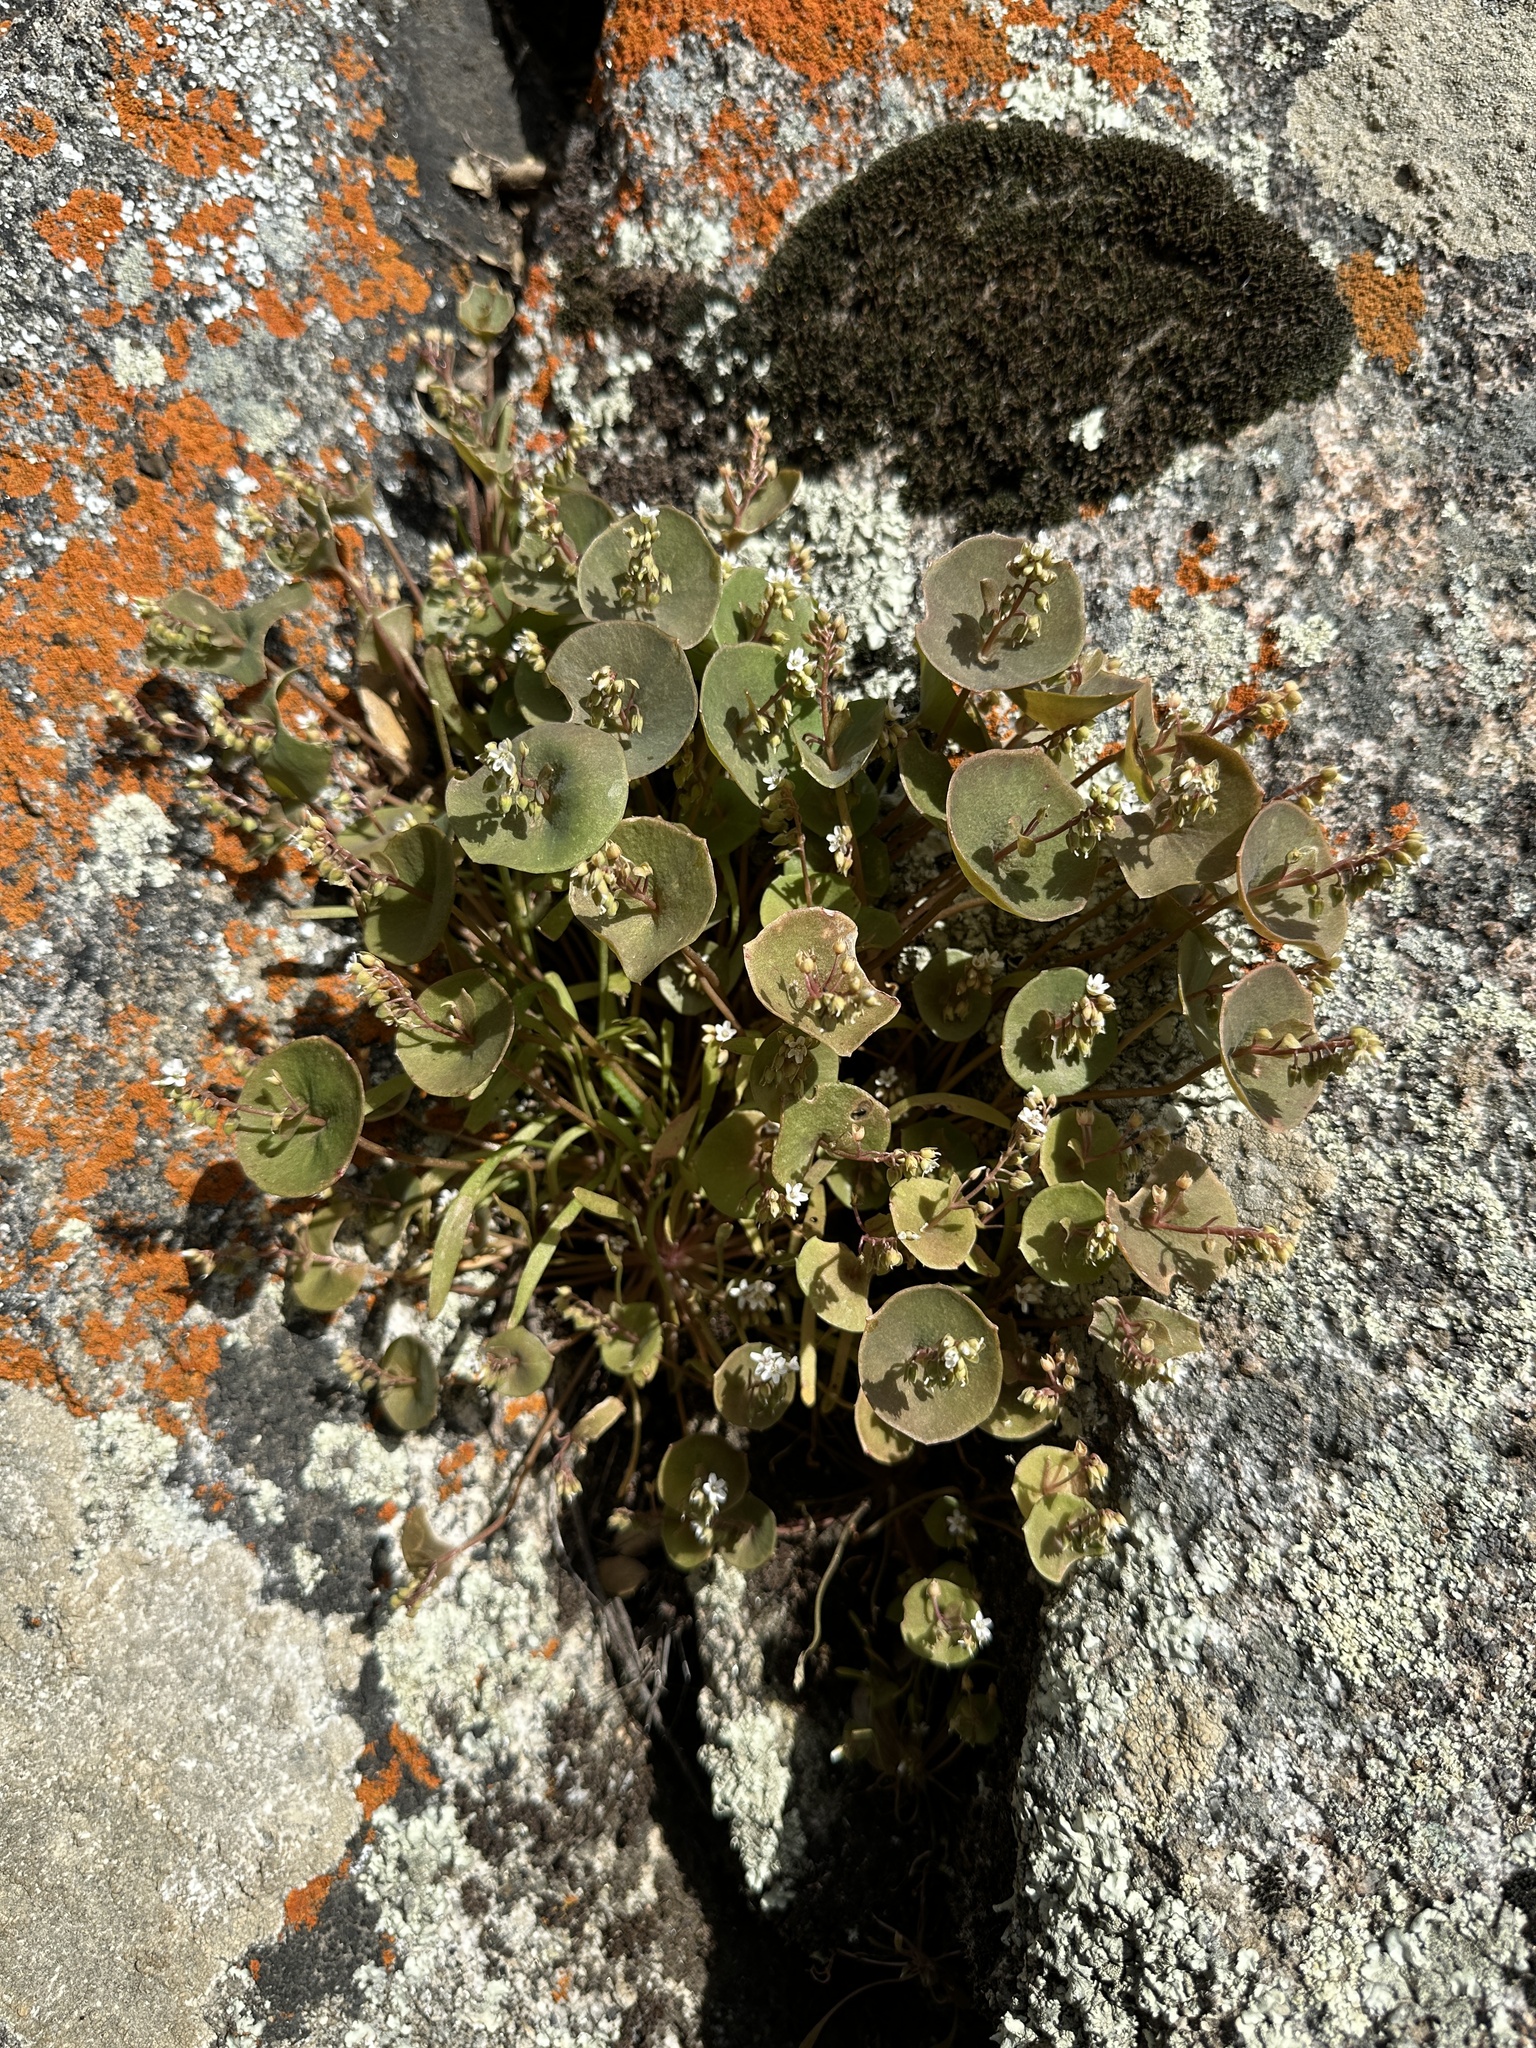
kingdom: Plantae
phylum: Tracheophyta
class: Magnoliopsida
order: Caryophyllales
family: Montiaceae
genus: Claytonia
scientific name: Claytonia parviflora
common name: Indian-lettuce
